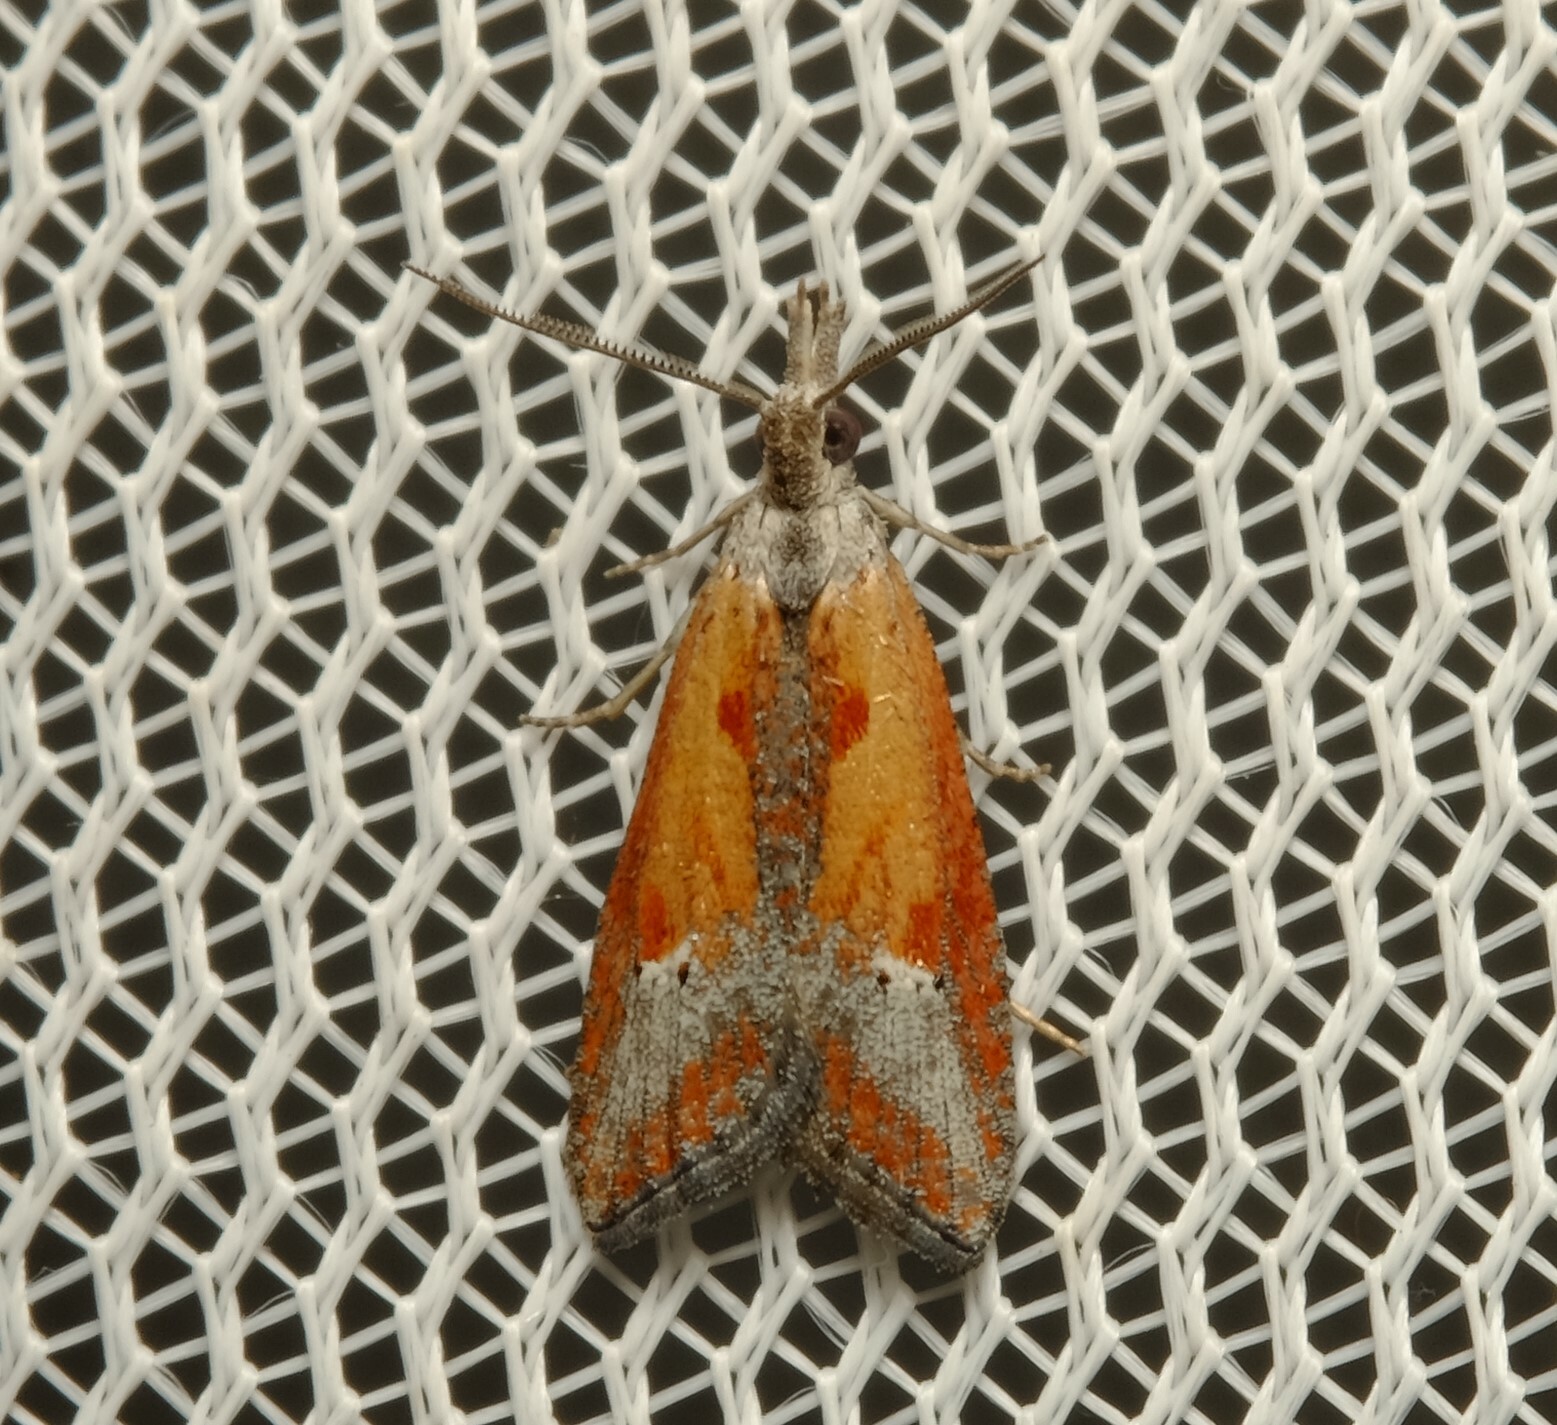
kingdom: Animalia
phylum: Arthropoda
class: Insecta
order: Lepidoptera
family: Tortricidae
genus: Peraglyphis
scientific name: Peraglyphis scepasta
